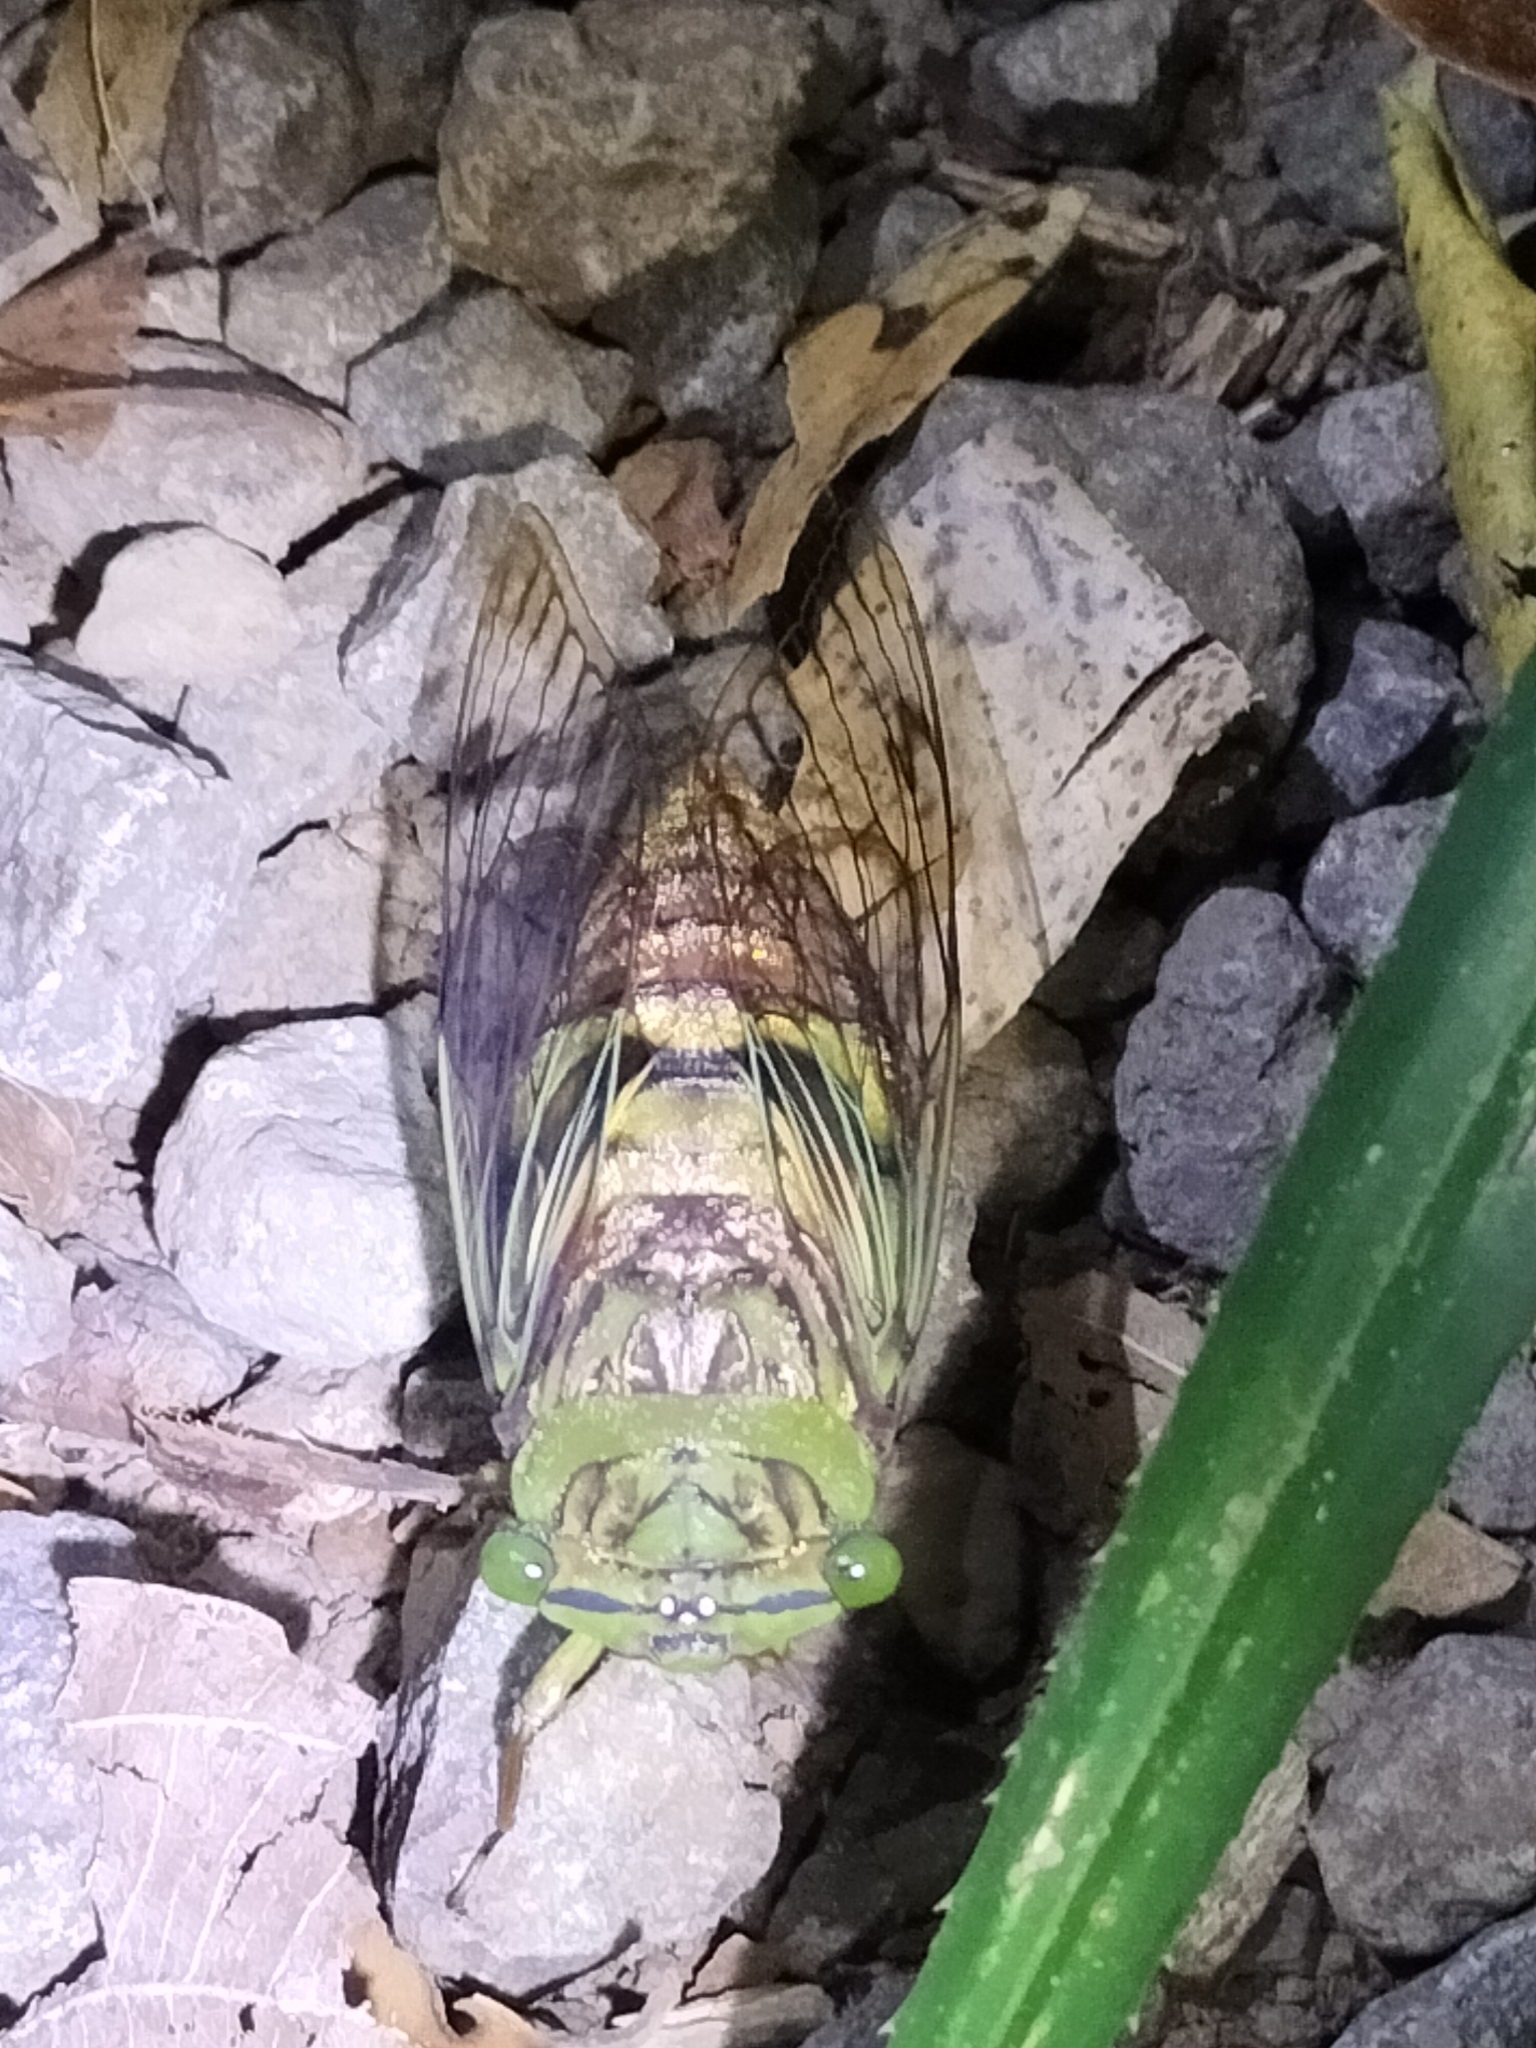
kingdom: Animalia
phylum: Arthropoda
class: Insecta
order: Hemiptera
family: Cicadidae
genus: Anapsaltoda
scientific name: Anapsaltoda pulchra
